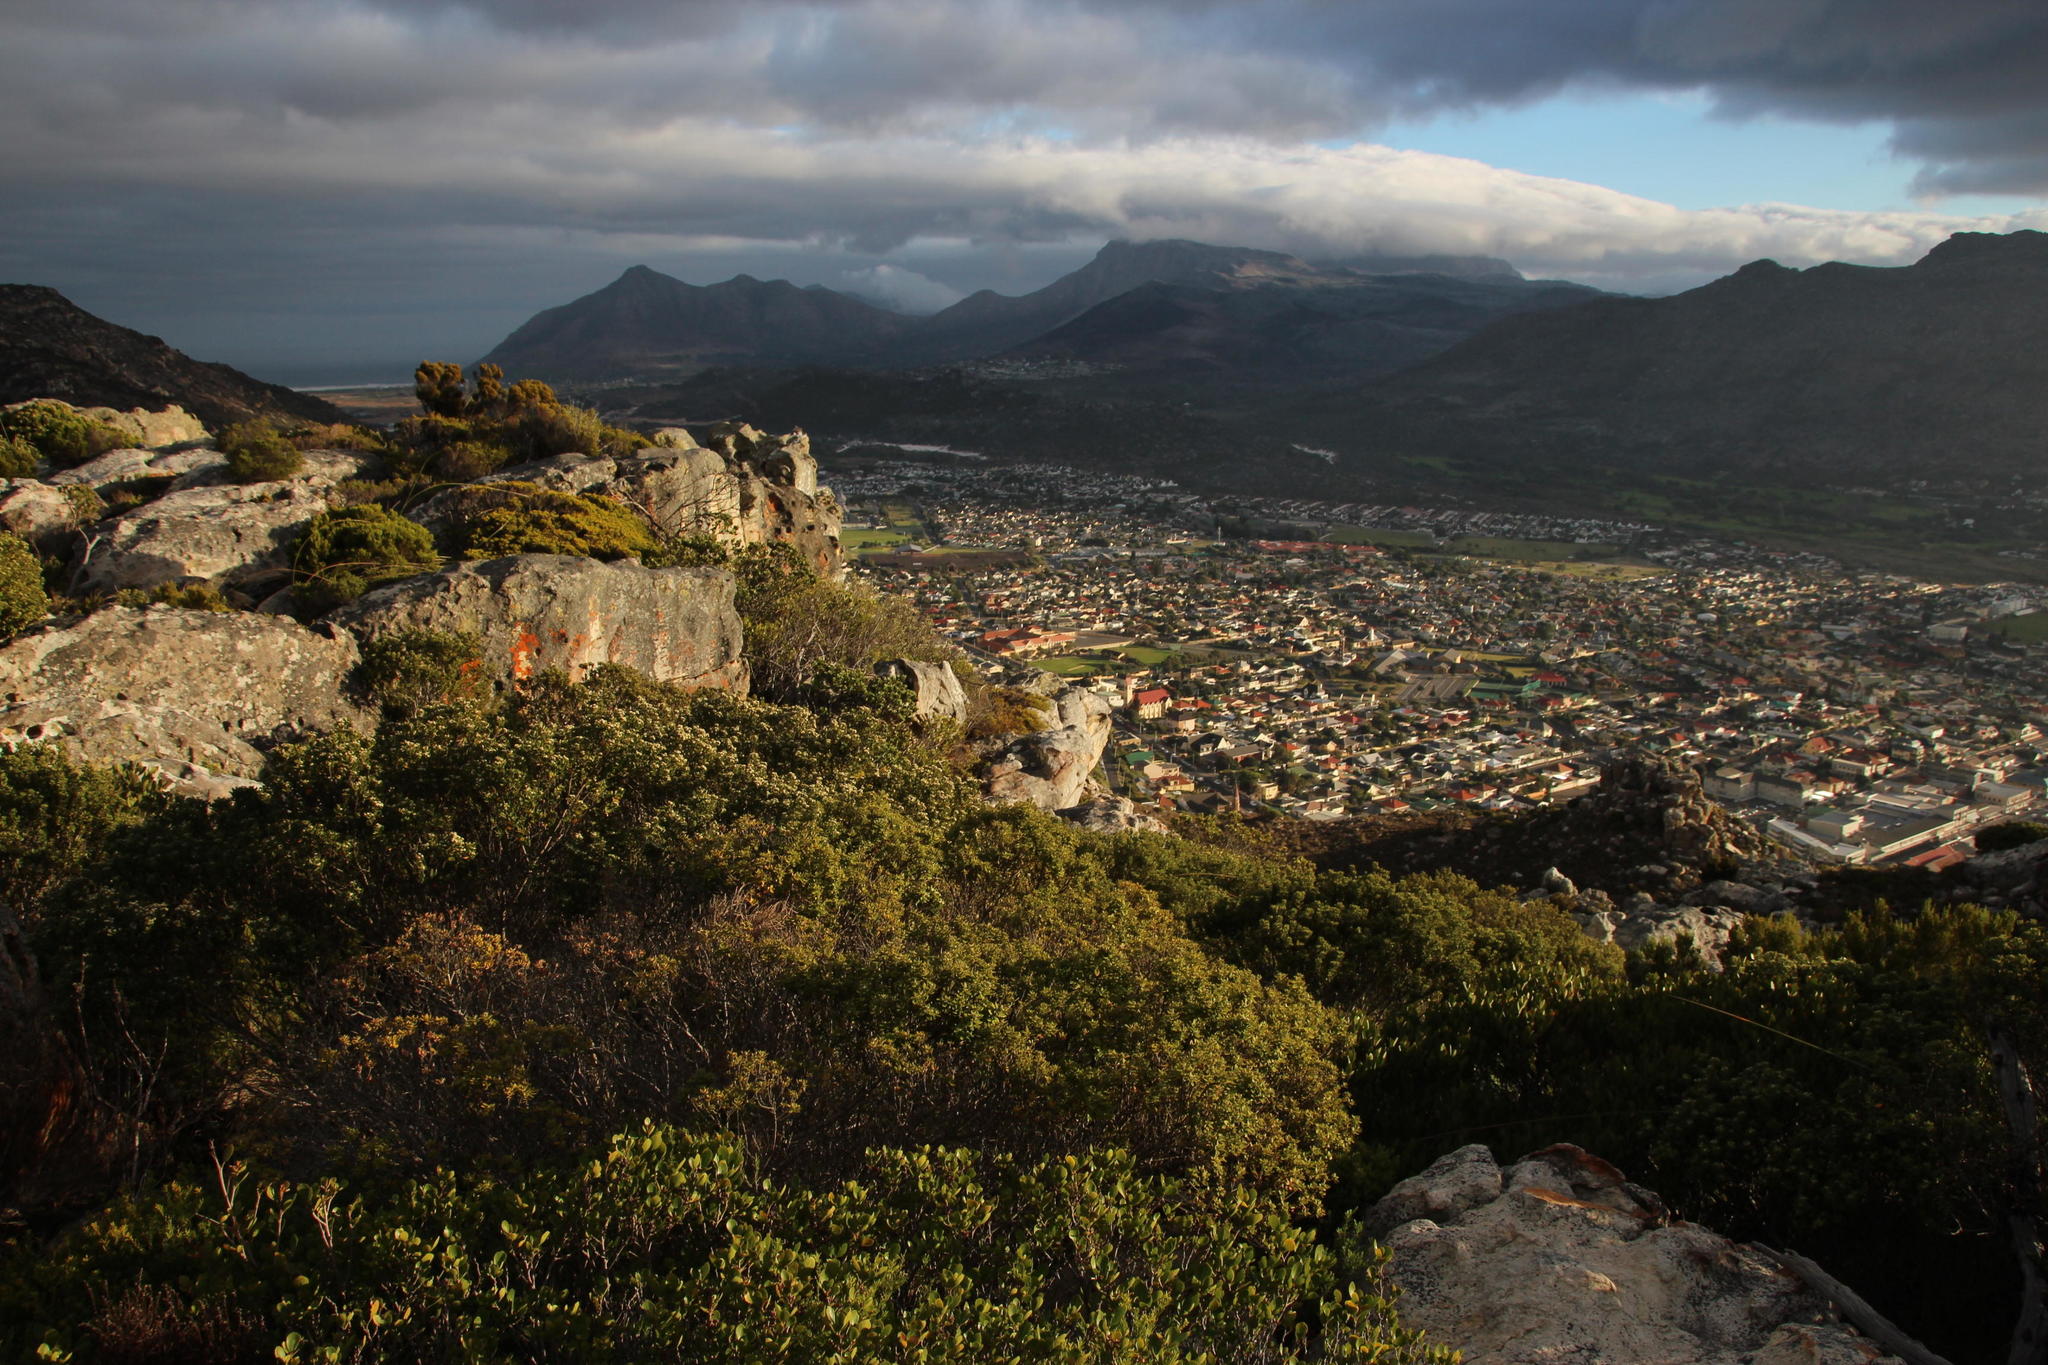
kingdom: Plantae
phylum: Tracheophyta
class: Magnoliopsida
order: Rosales
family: Rhamnaceae
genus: Phylica
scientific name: Phylica buxifolia
